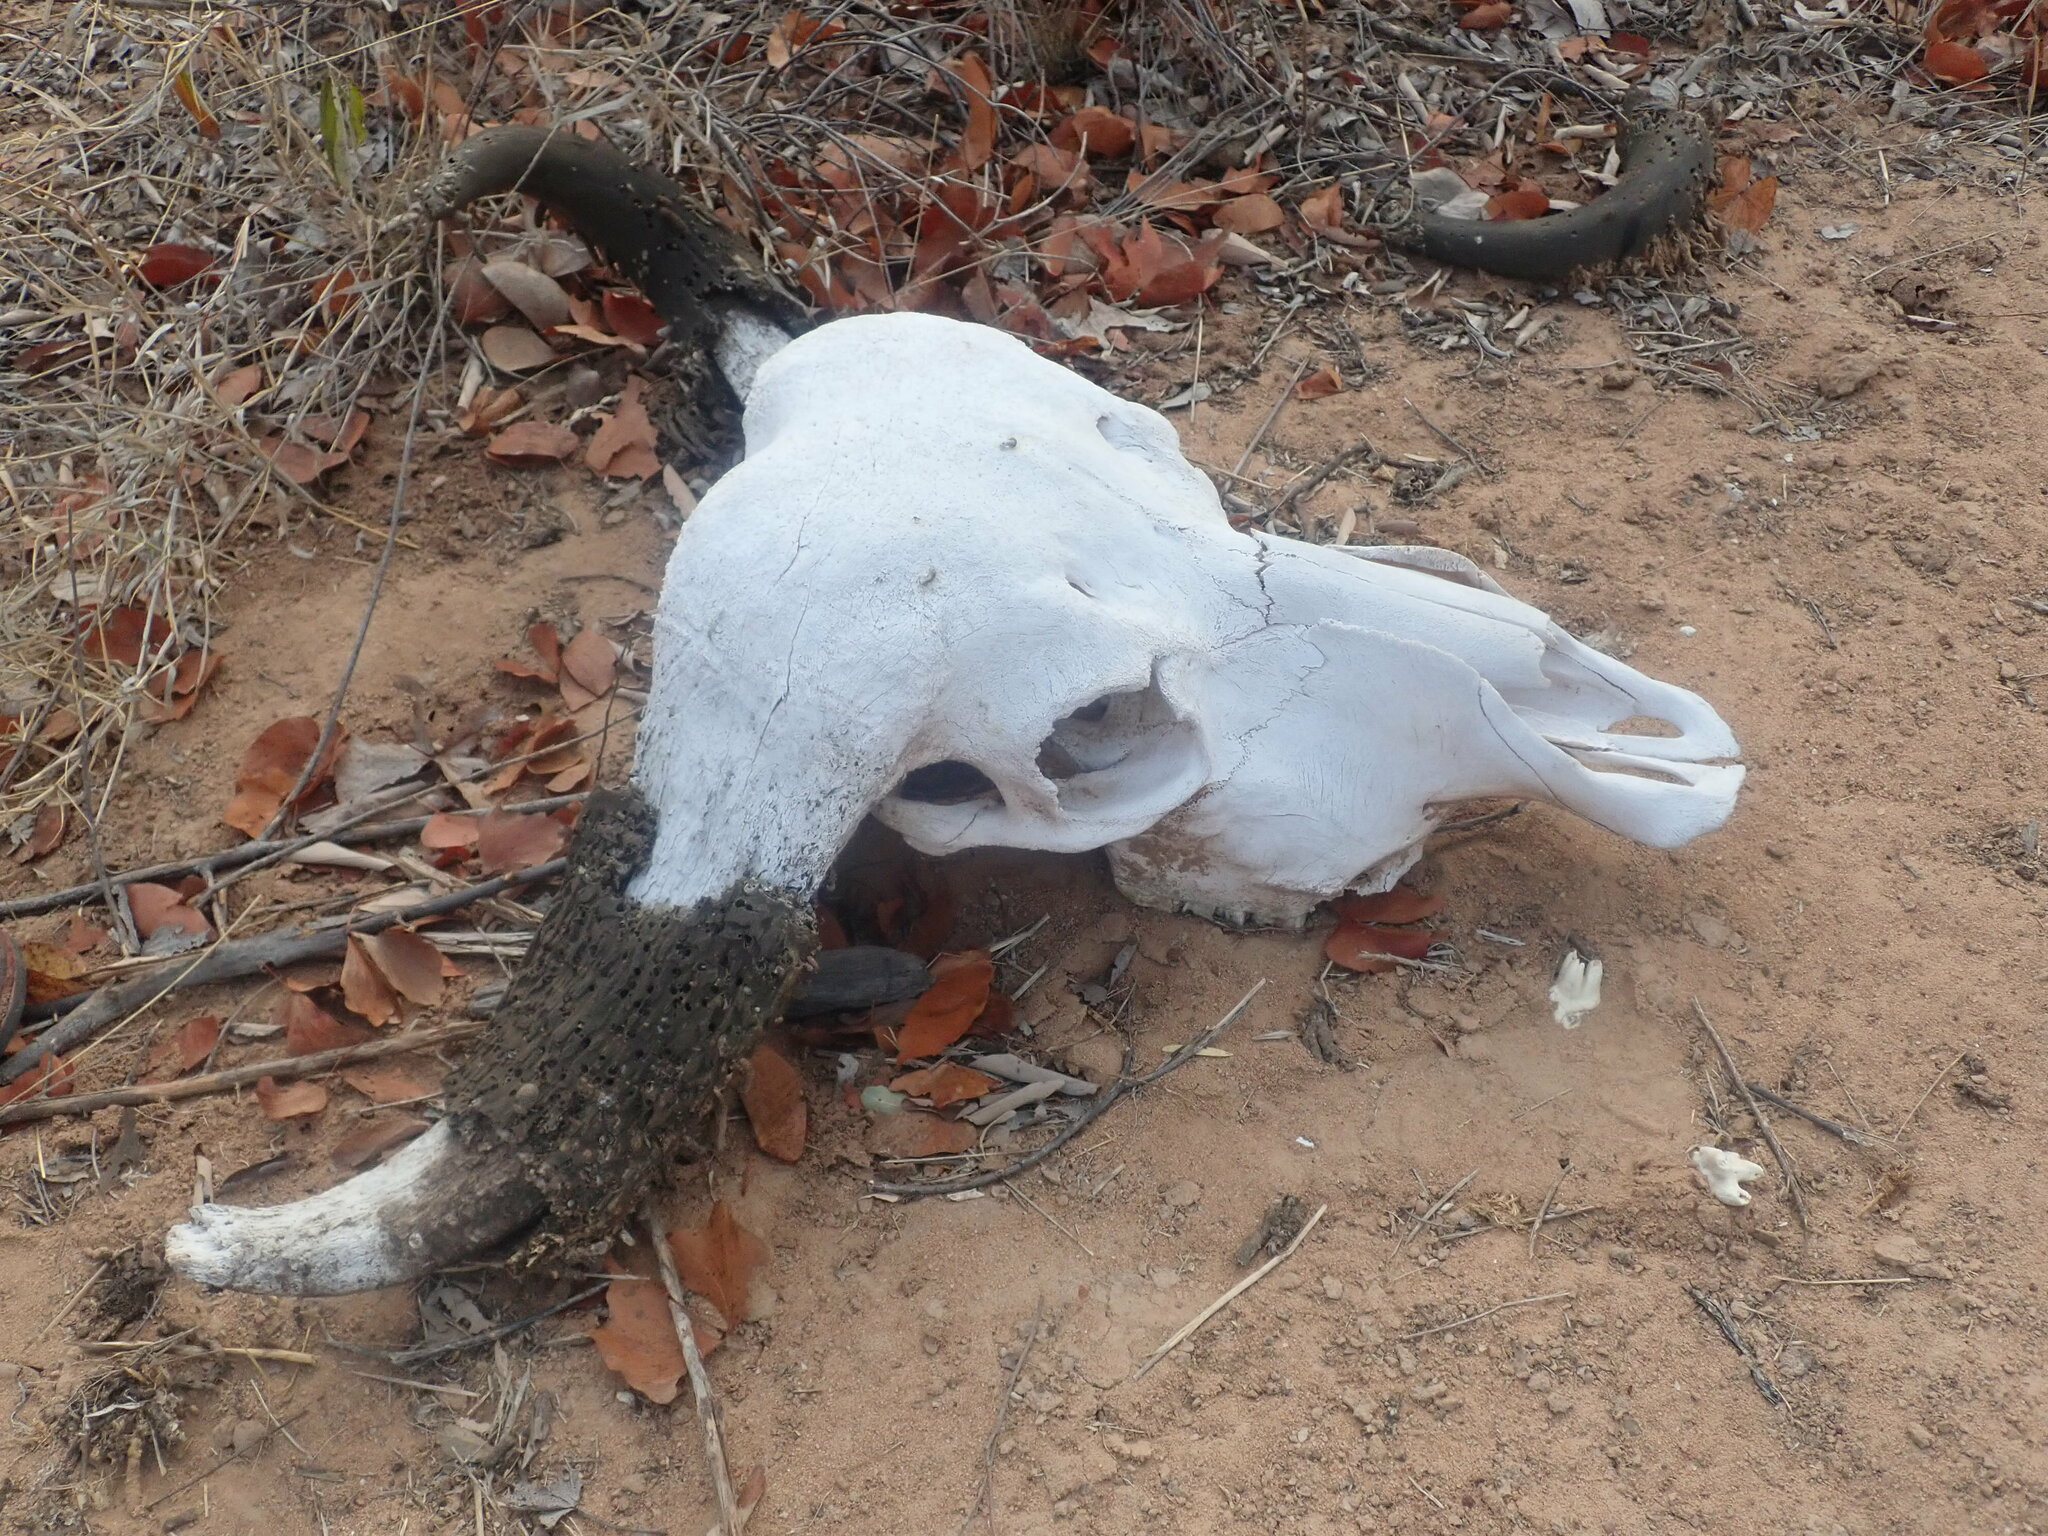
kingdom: Animalia
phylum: Chordata
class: Mammalia
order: Artiodactyla
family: Bovidae
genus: Syncerus
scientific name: Syncerus caffer
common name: African buffalo
